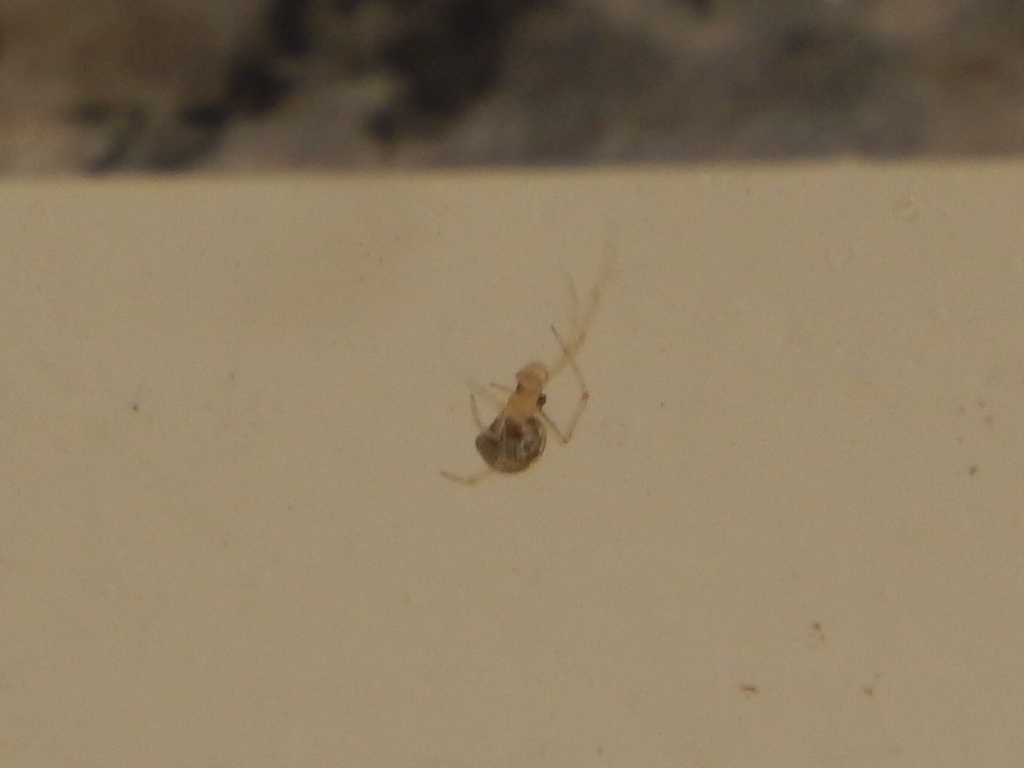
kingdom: Animalia
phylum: Arthropoda
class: Arachnida
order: Araneae
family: Theridiidae
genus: Theridion
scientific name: Theridion
